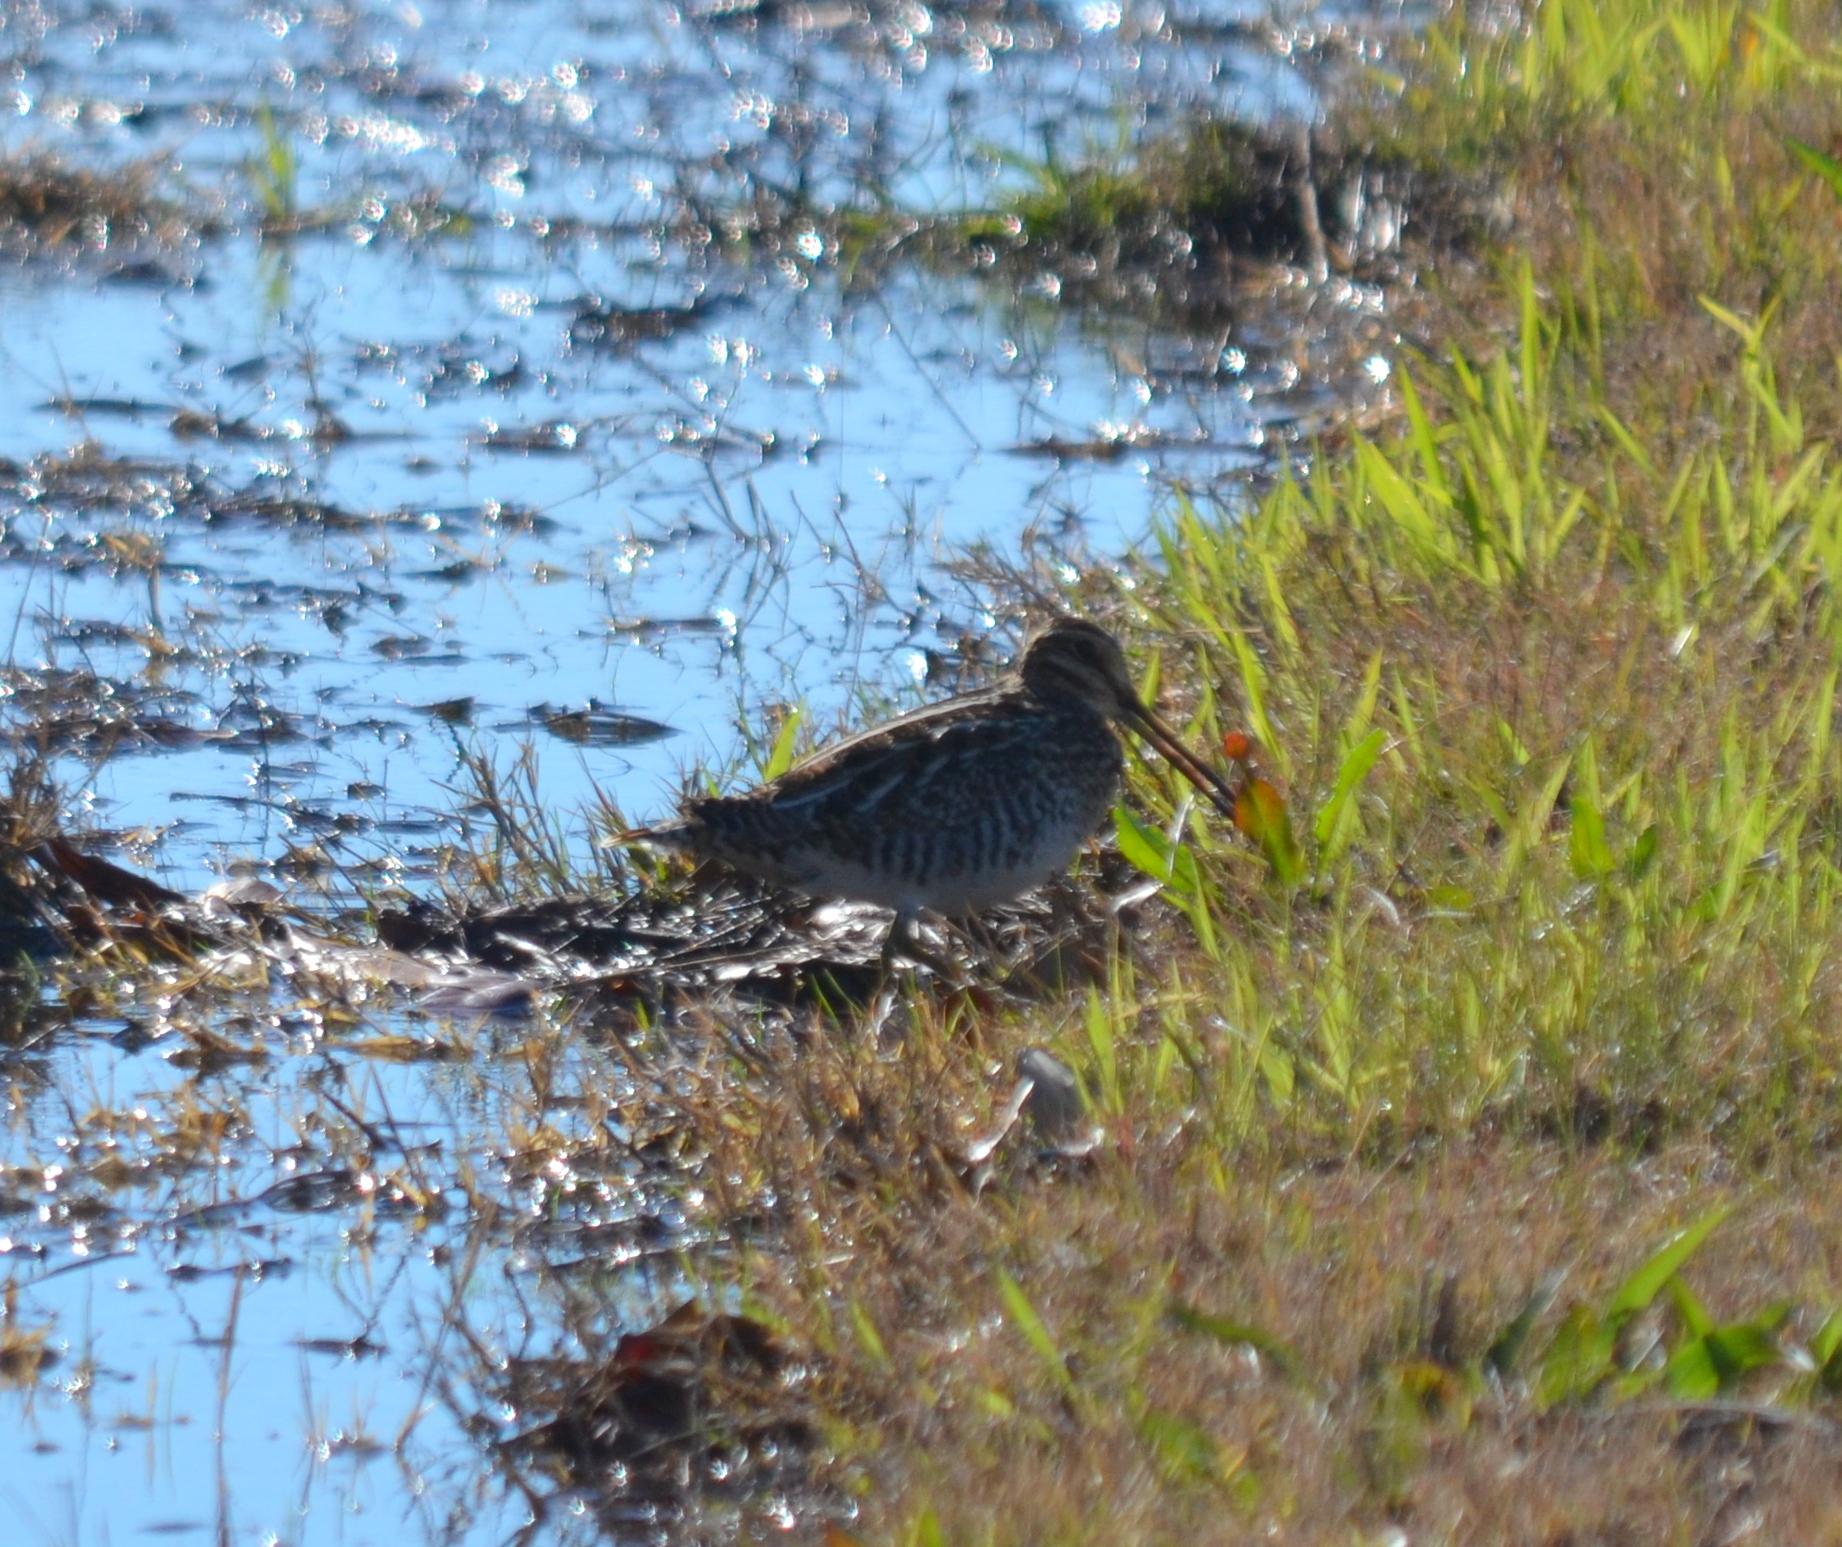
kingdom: Animalia
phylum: Chordata
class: Aves
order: Charadriiformes
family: Scolopacidae
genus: Gallinago
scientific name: Gallinago delicata
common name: Wilson's snipe
